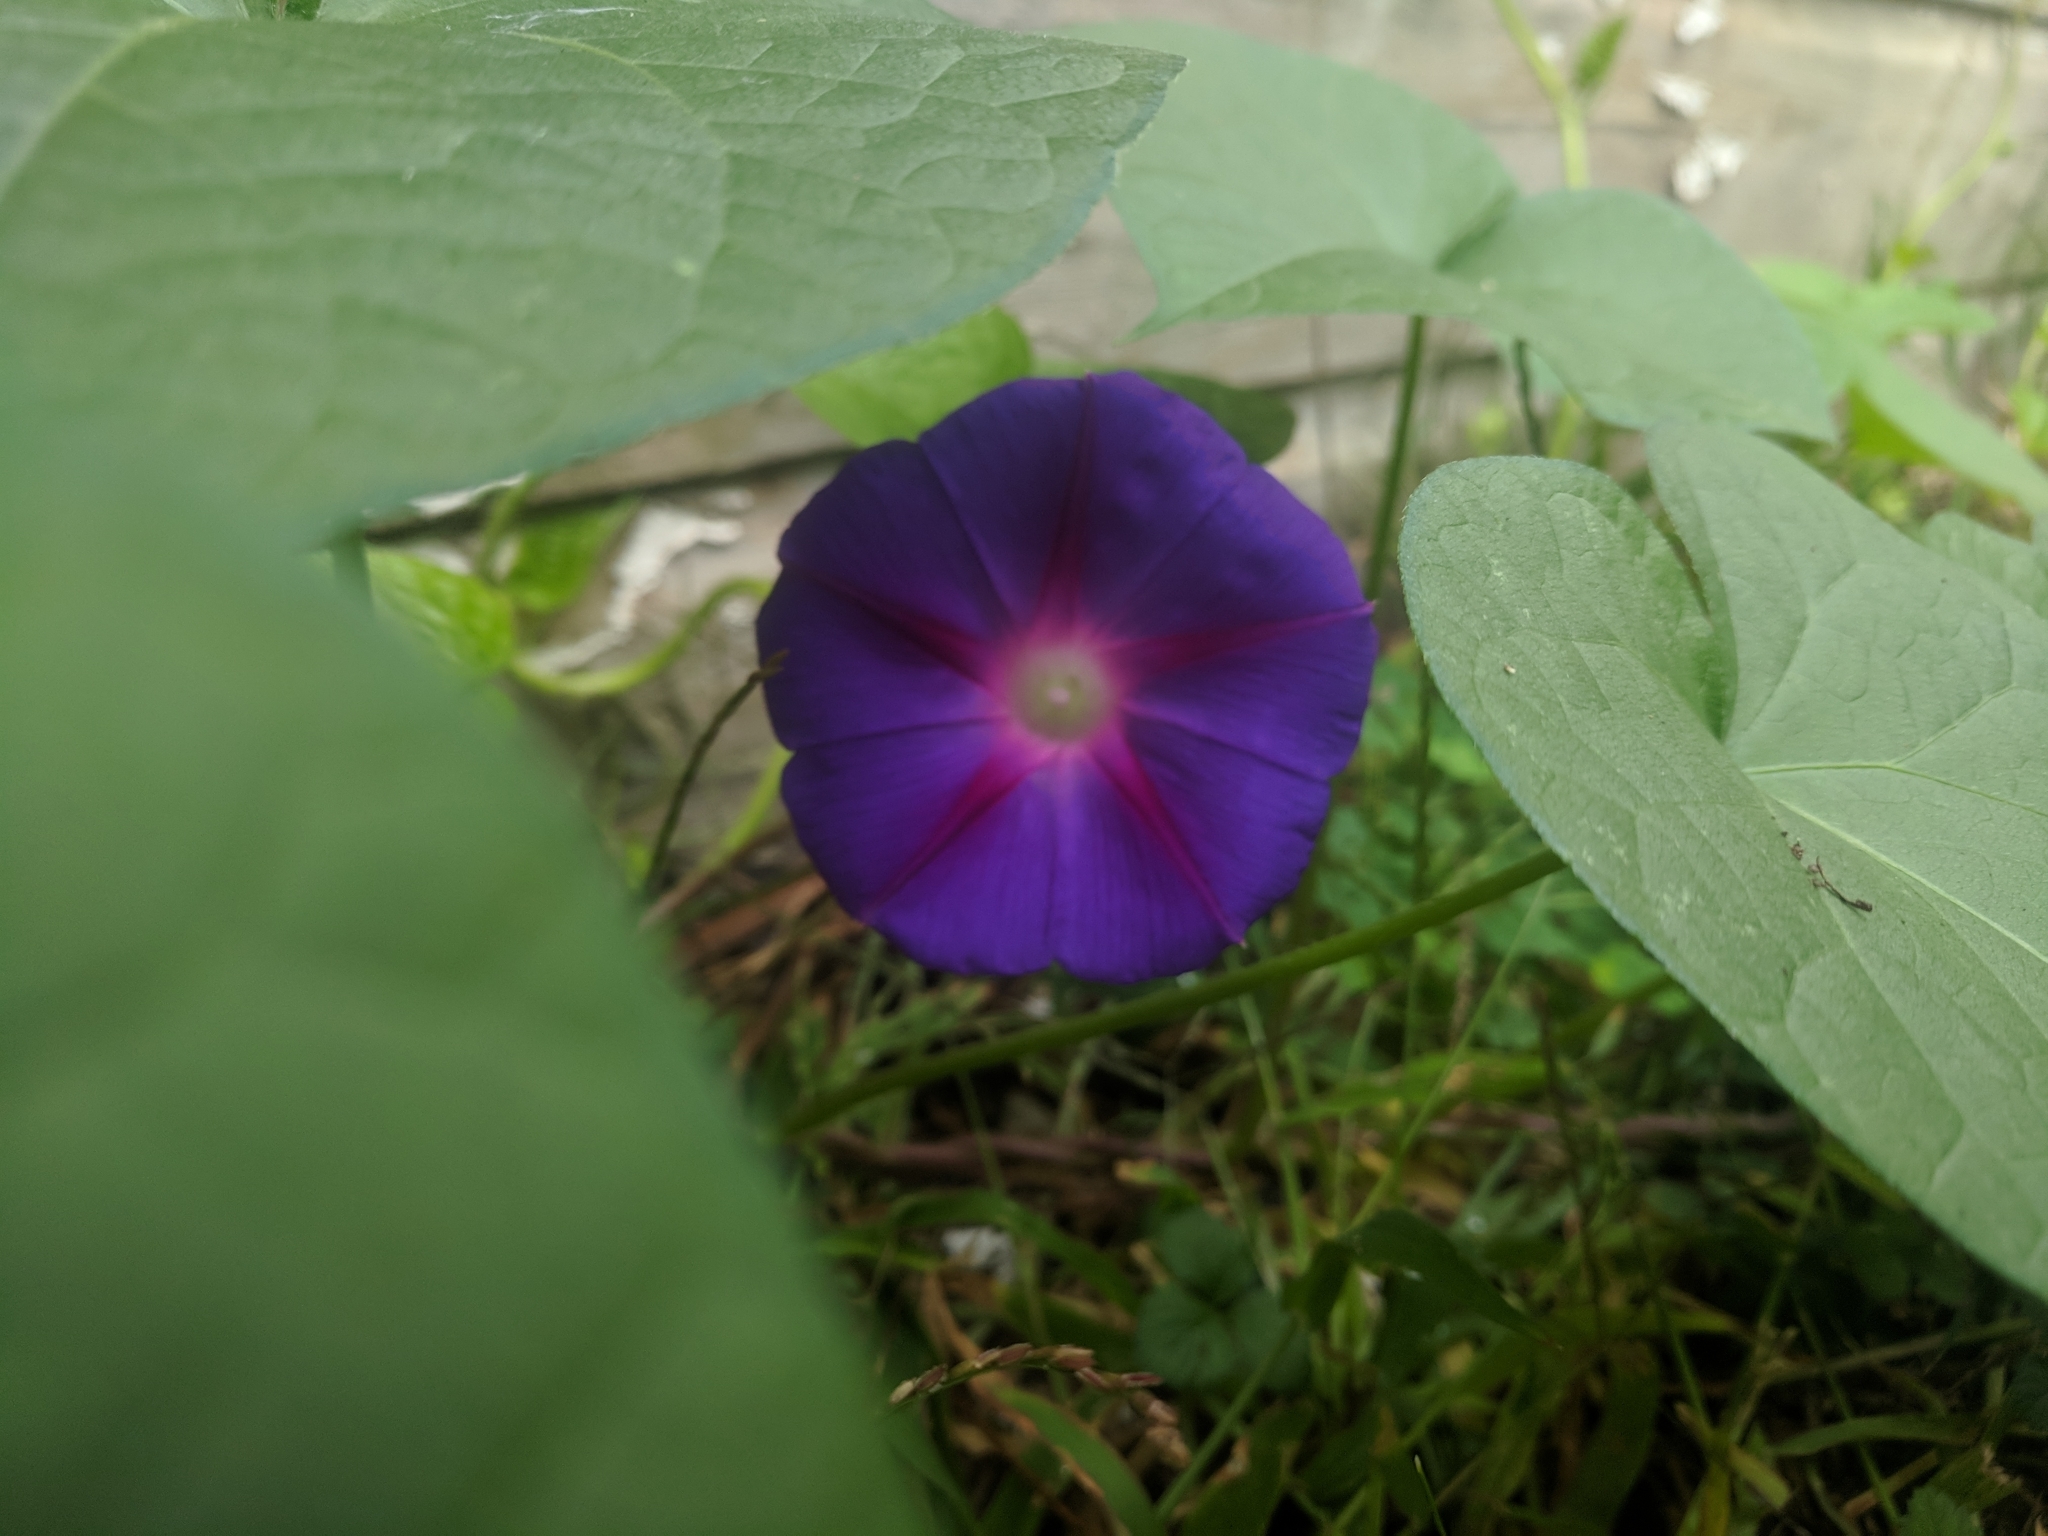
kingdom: Plantae
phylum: Tracheophyta
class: Magnoliopsida
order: Solanales
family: Convolvulaceae
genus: Ipomoea
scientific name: Ipomoea purpurea
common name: Common morning-glory
